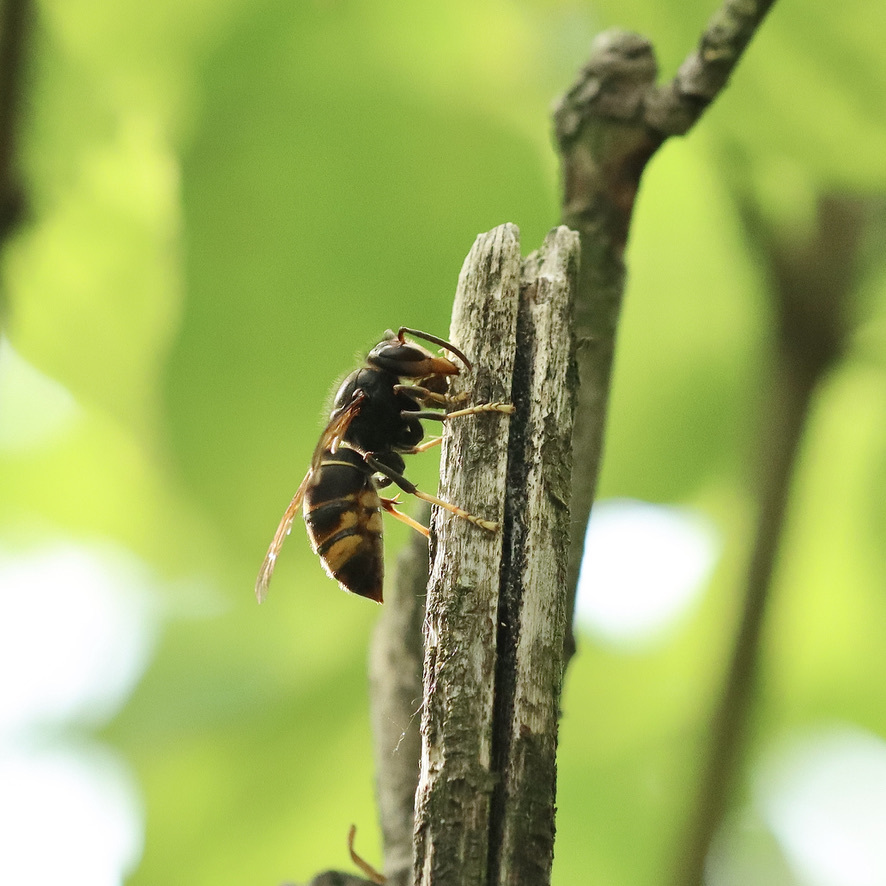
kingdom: Animalia
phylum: Arthropoda
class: Insecta
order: Hymenoptera
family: Vespidae
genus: Vespa
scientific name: Vespa velutina
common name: Asian hornet
